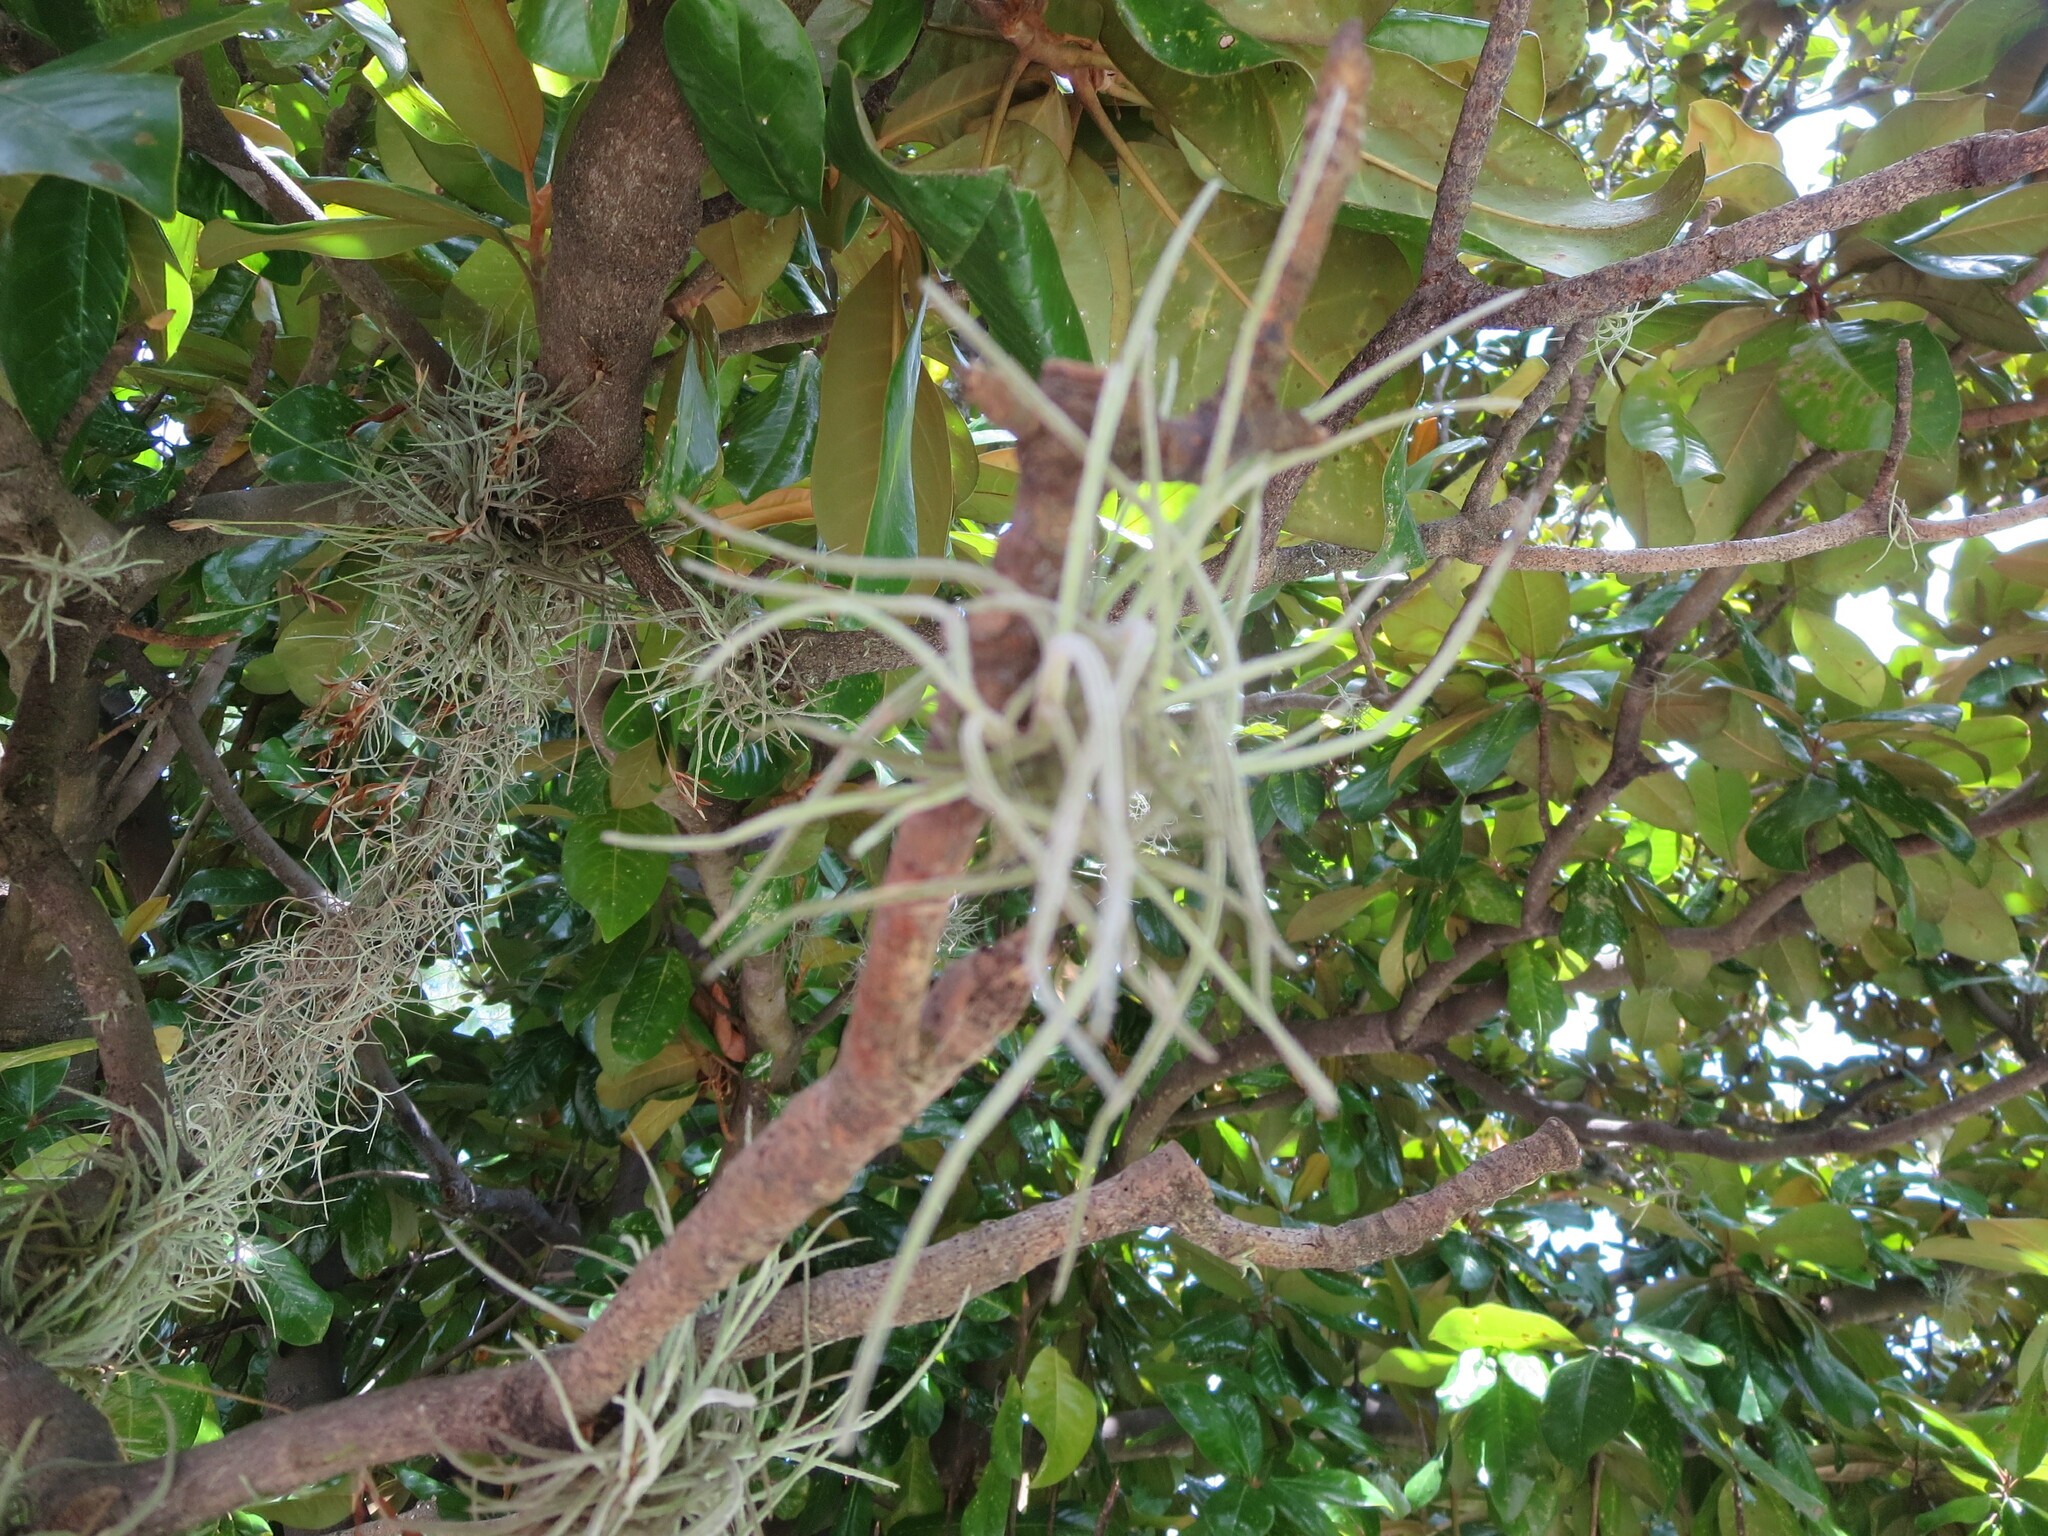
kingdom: Plantae
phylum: Tracheophyta
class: Liliopsida
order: Poales
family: Bromeliaceae
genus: Tillandsia
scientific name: Tillandsia recurvata
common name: Small ballmoss
